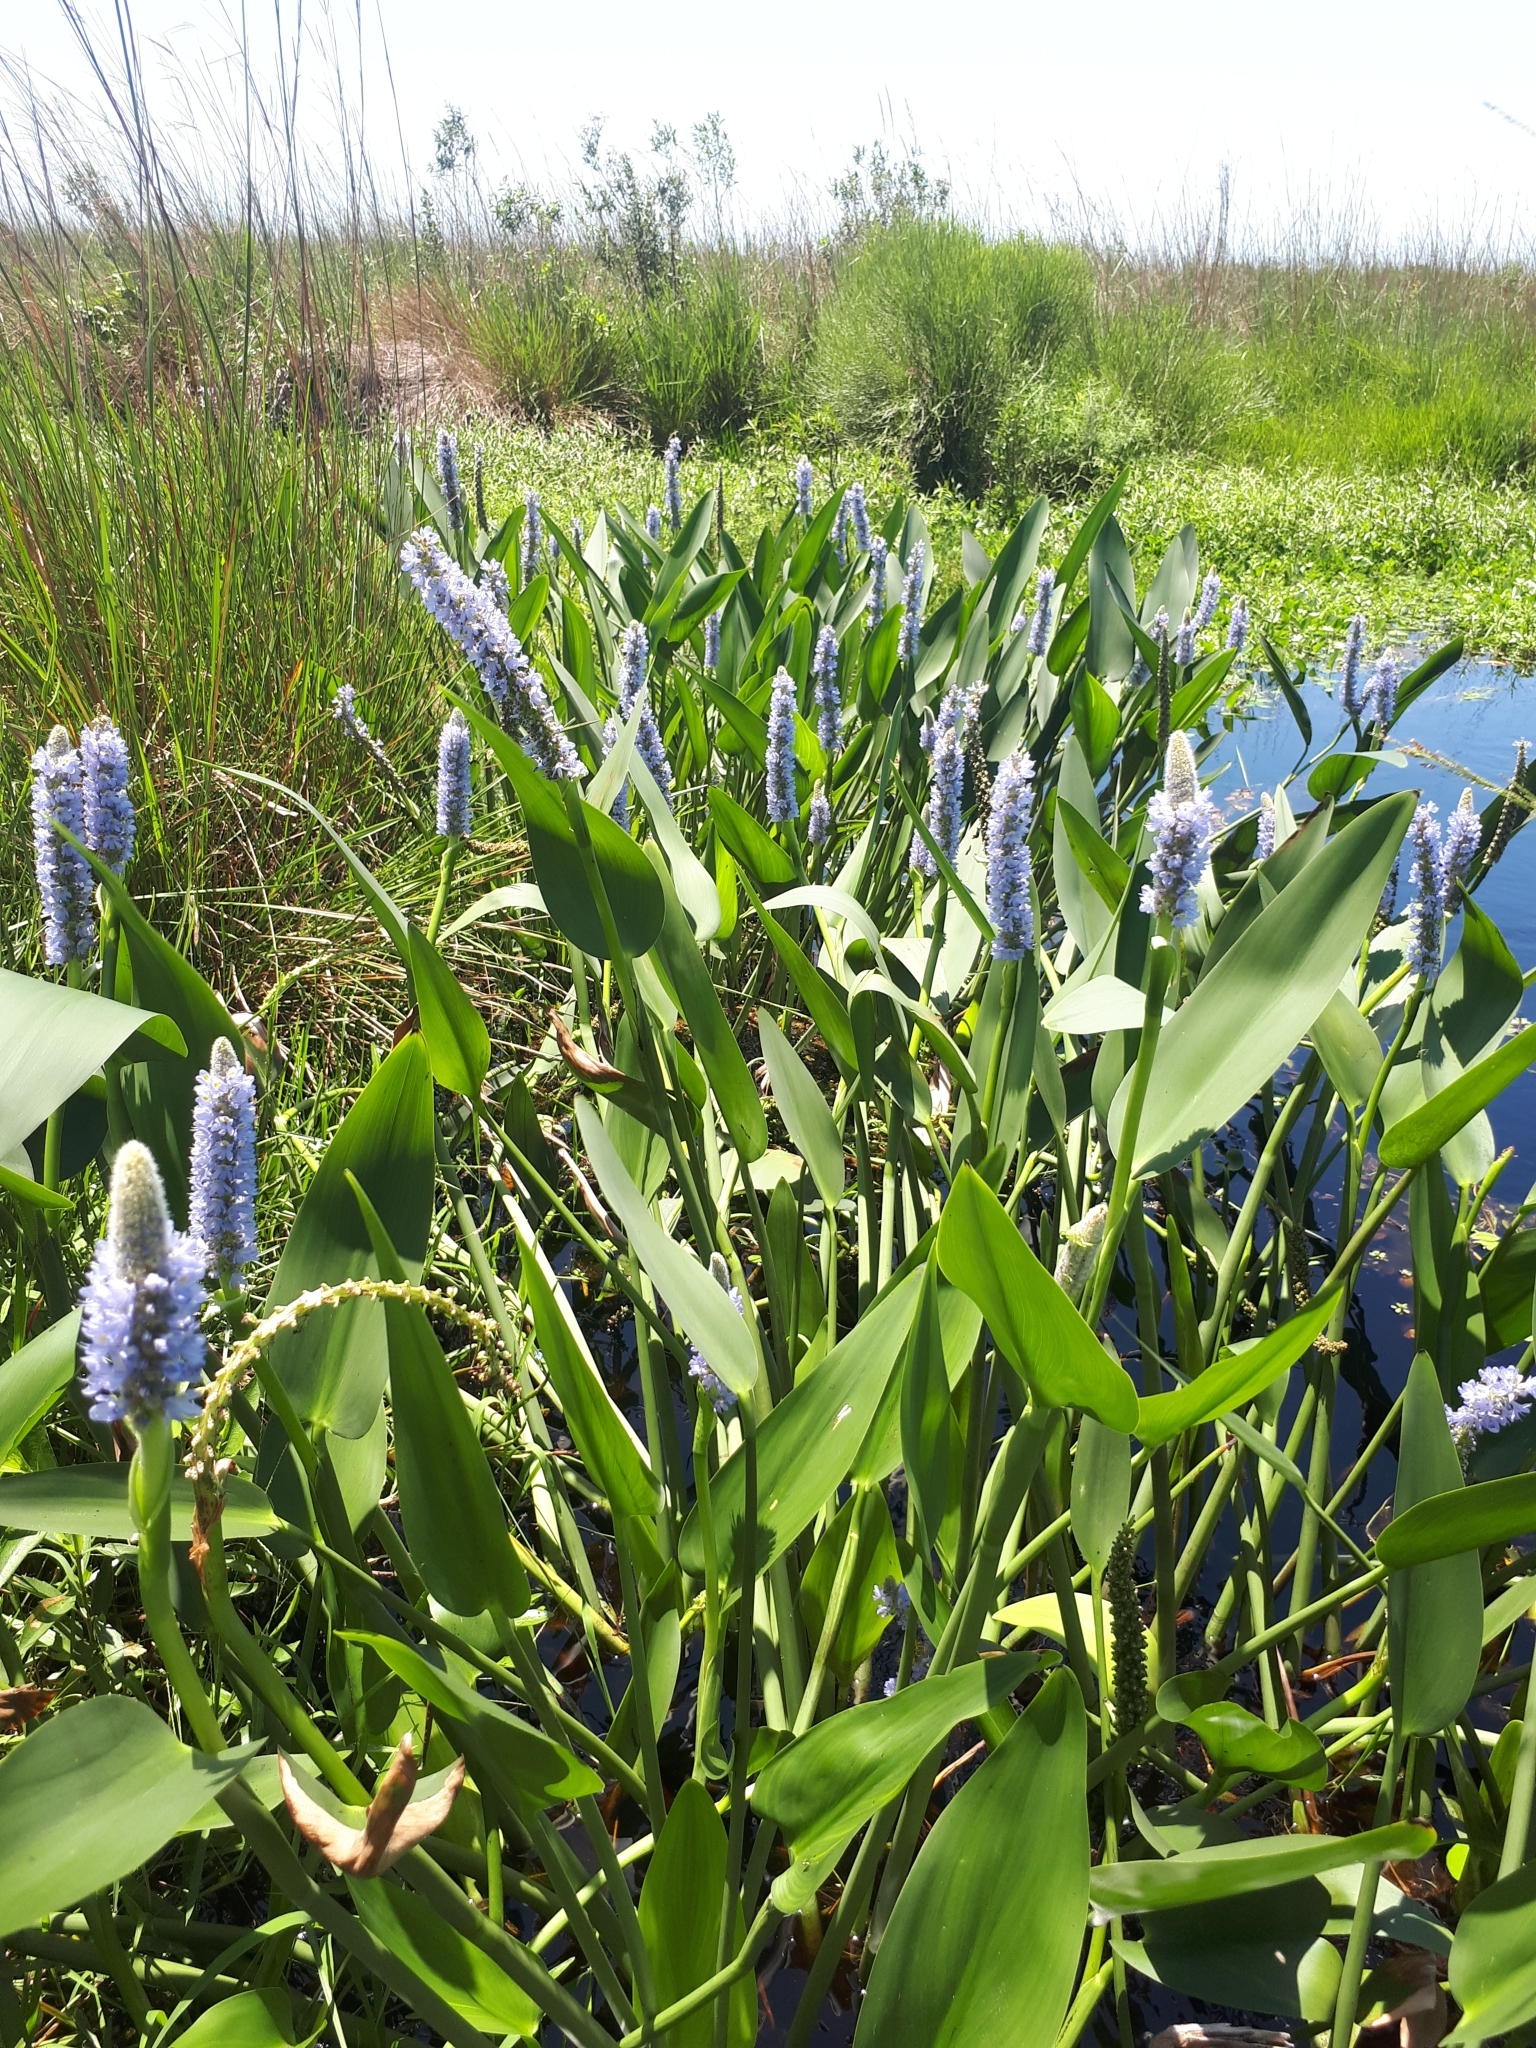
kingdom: Plantae
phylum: Tracheophyta
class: Liliopsida
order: Commelinales
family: Pontederiaceae
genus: Pontederia
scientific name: Pontederia cordata
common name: Pickerelweed
